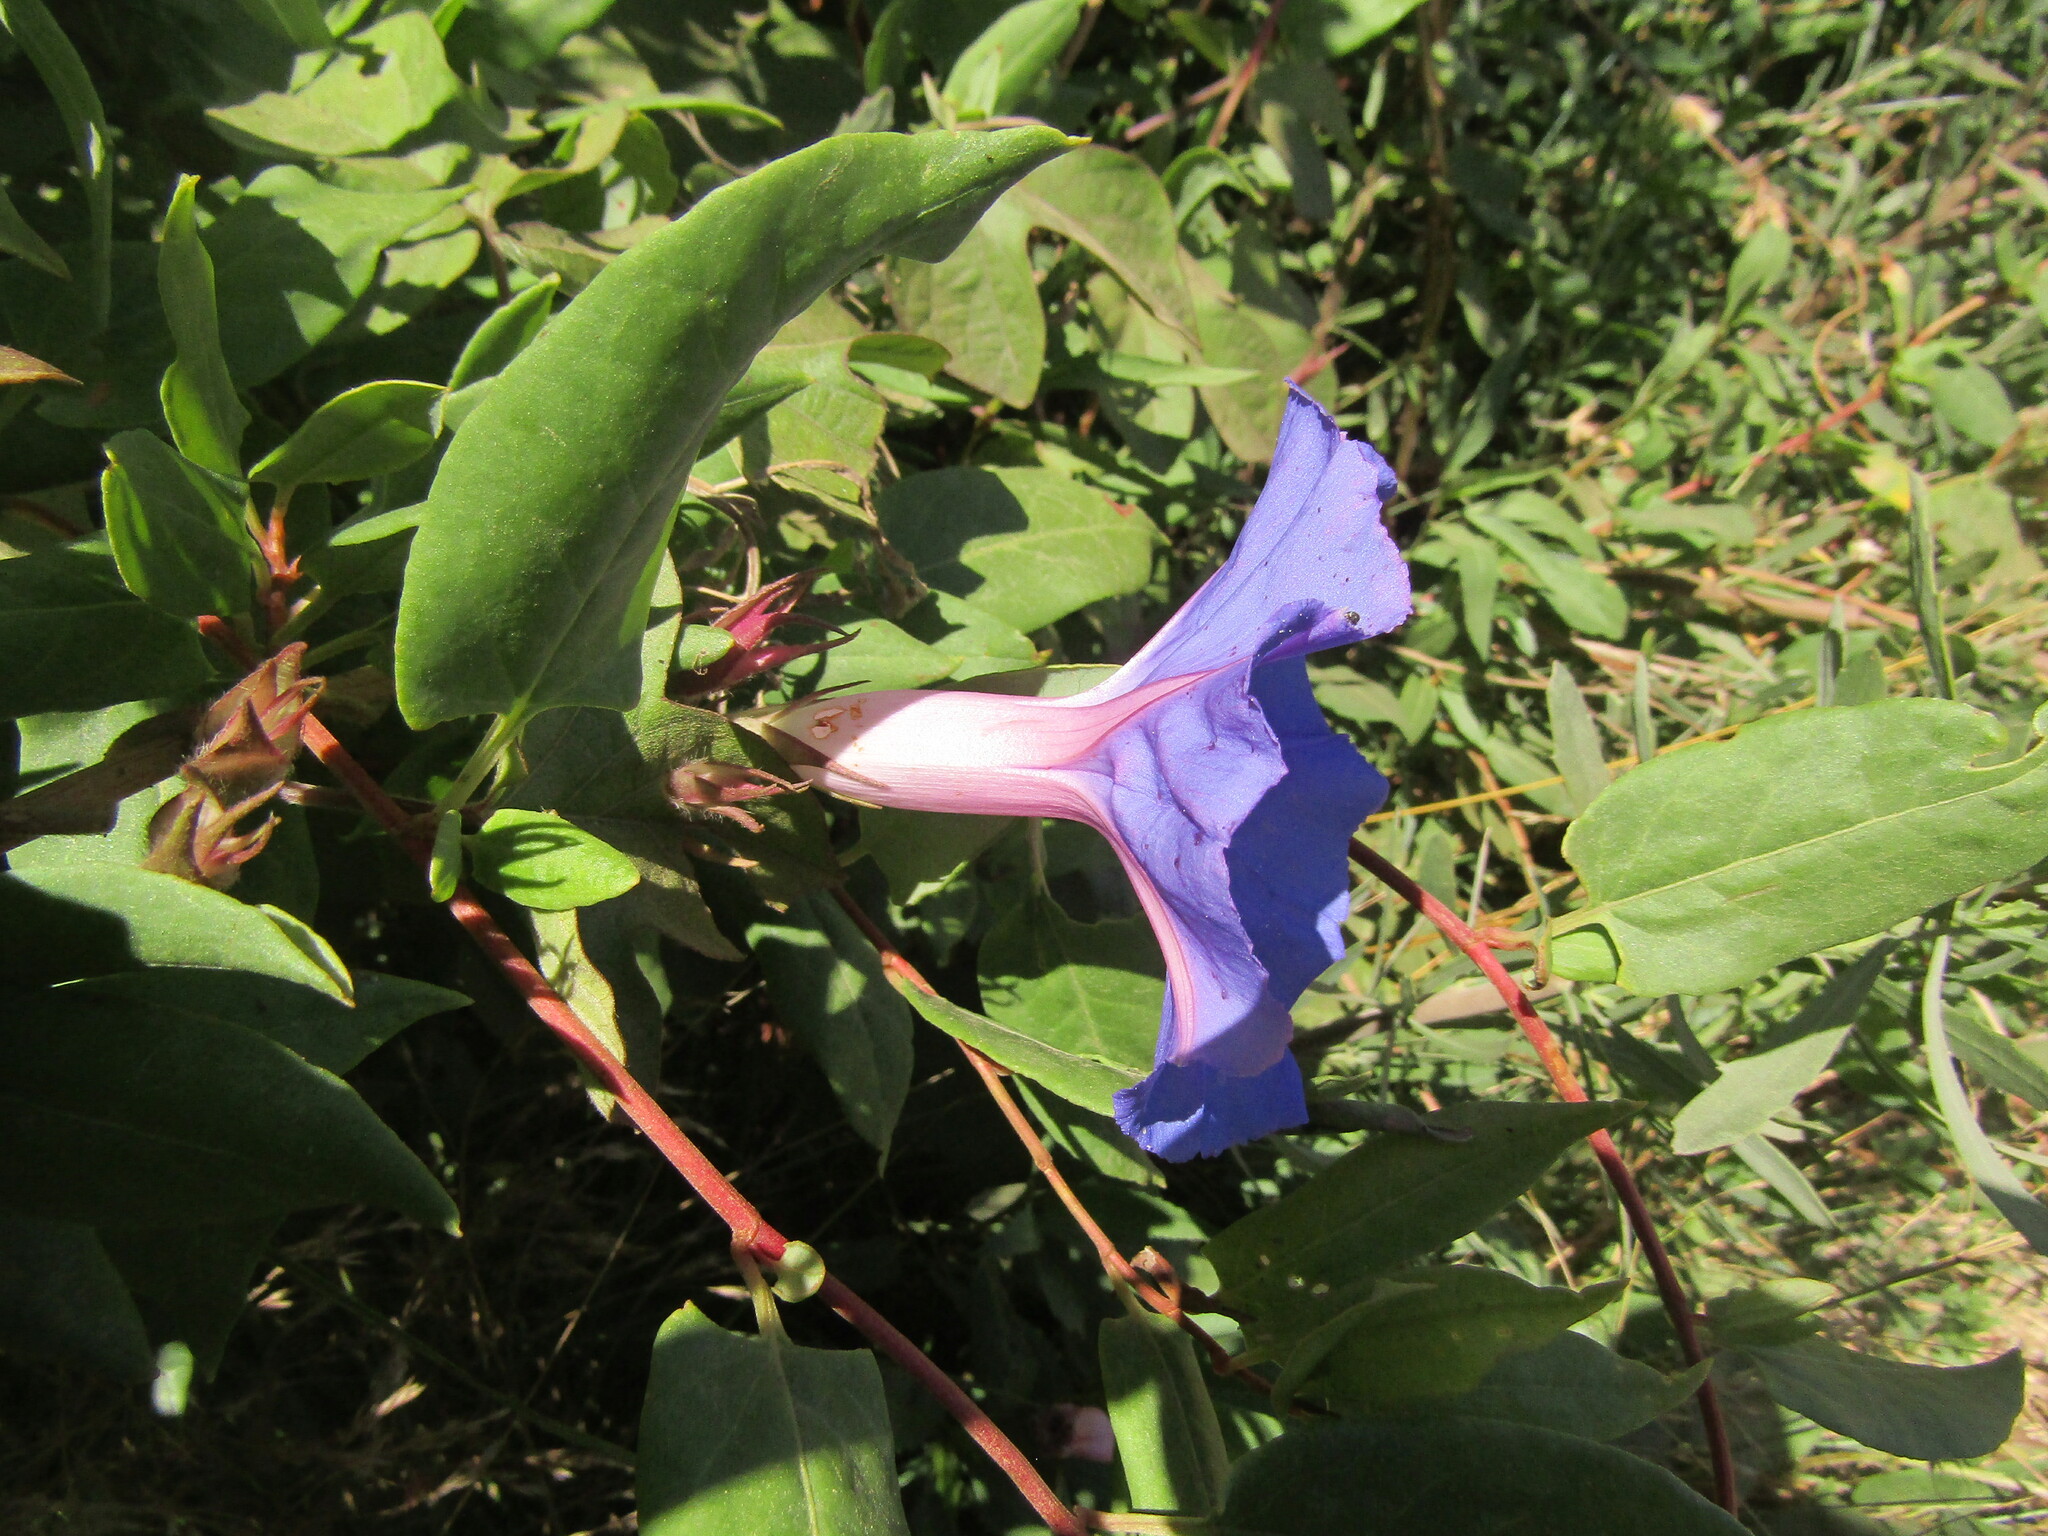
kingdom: Plantae
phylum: Tracheophyta
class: Magnoliopsida
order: Solanales
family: Convolvulaceae
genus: Ipomoea
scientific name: Ipomoea indica
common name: Blue dawnflower
